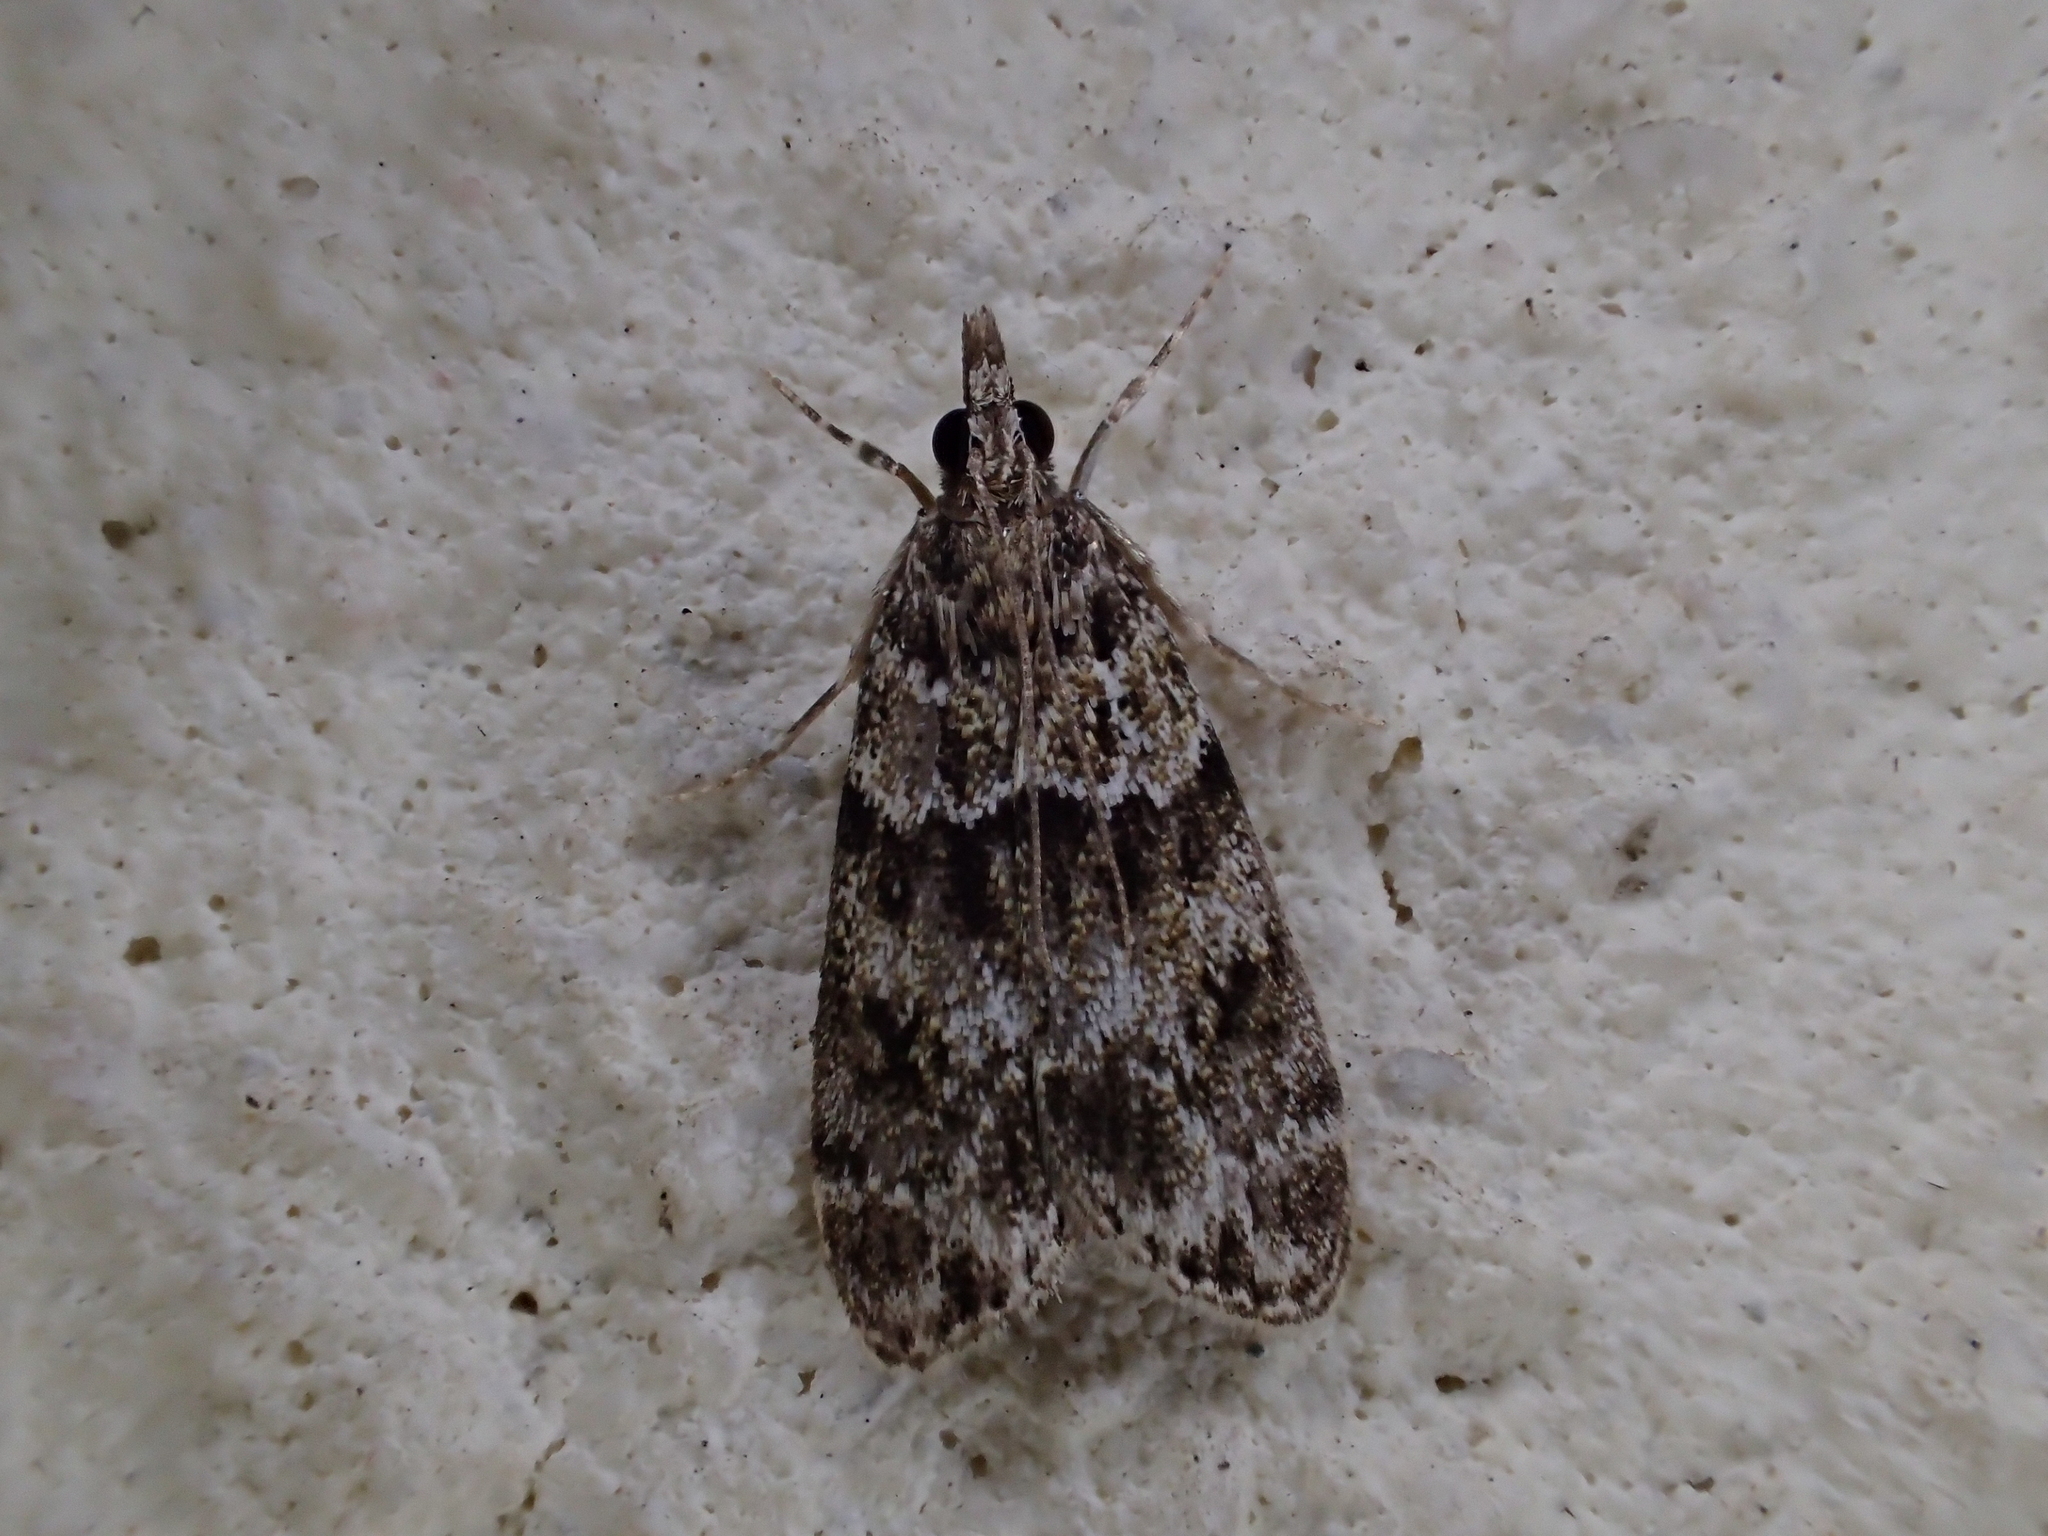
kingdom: Animalia
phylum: Arthropoda
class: Insecta
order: Lepidoptera
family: Crambidae
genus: Eudonia
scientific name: Eudonia mercurella
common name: Small grey
